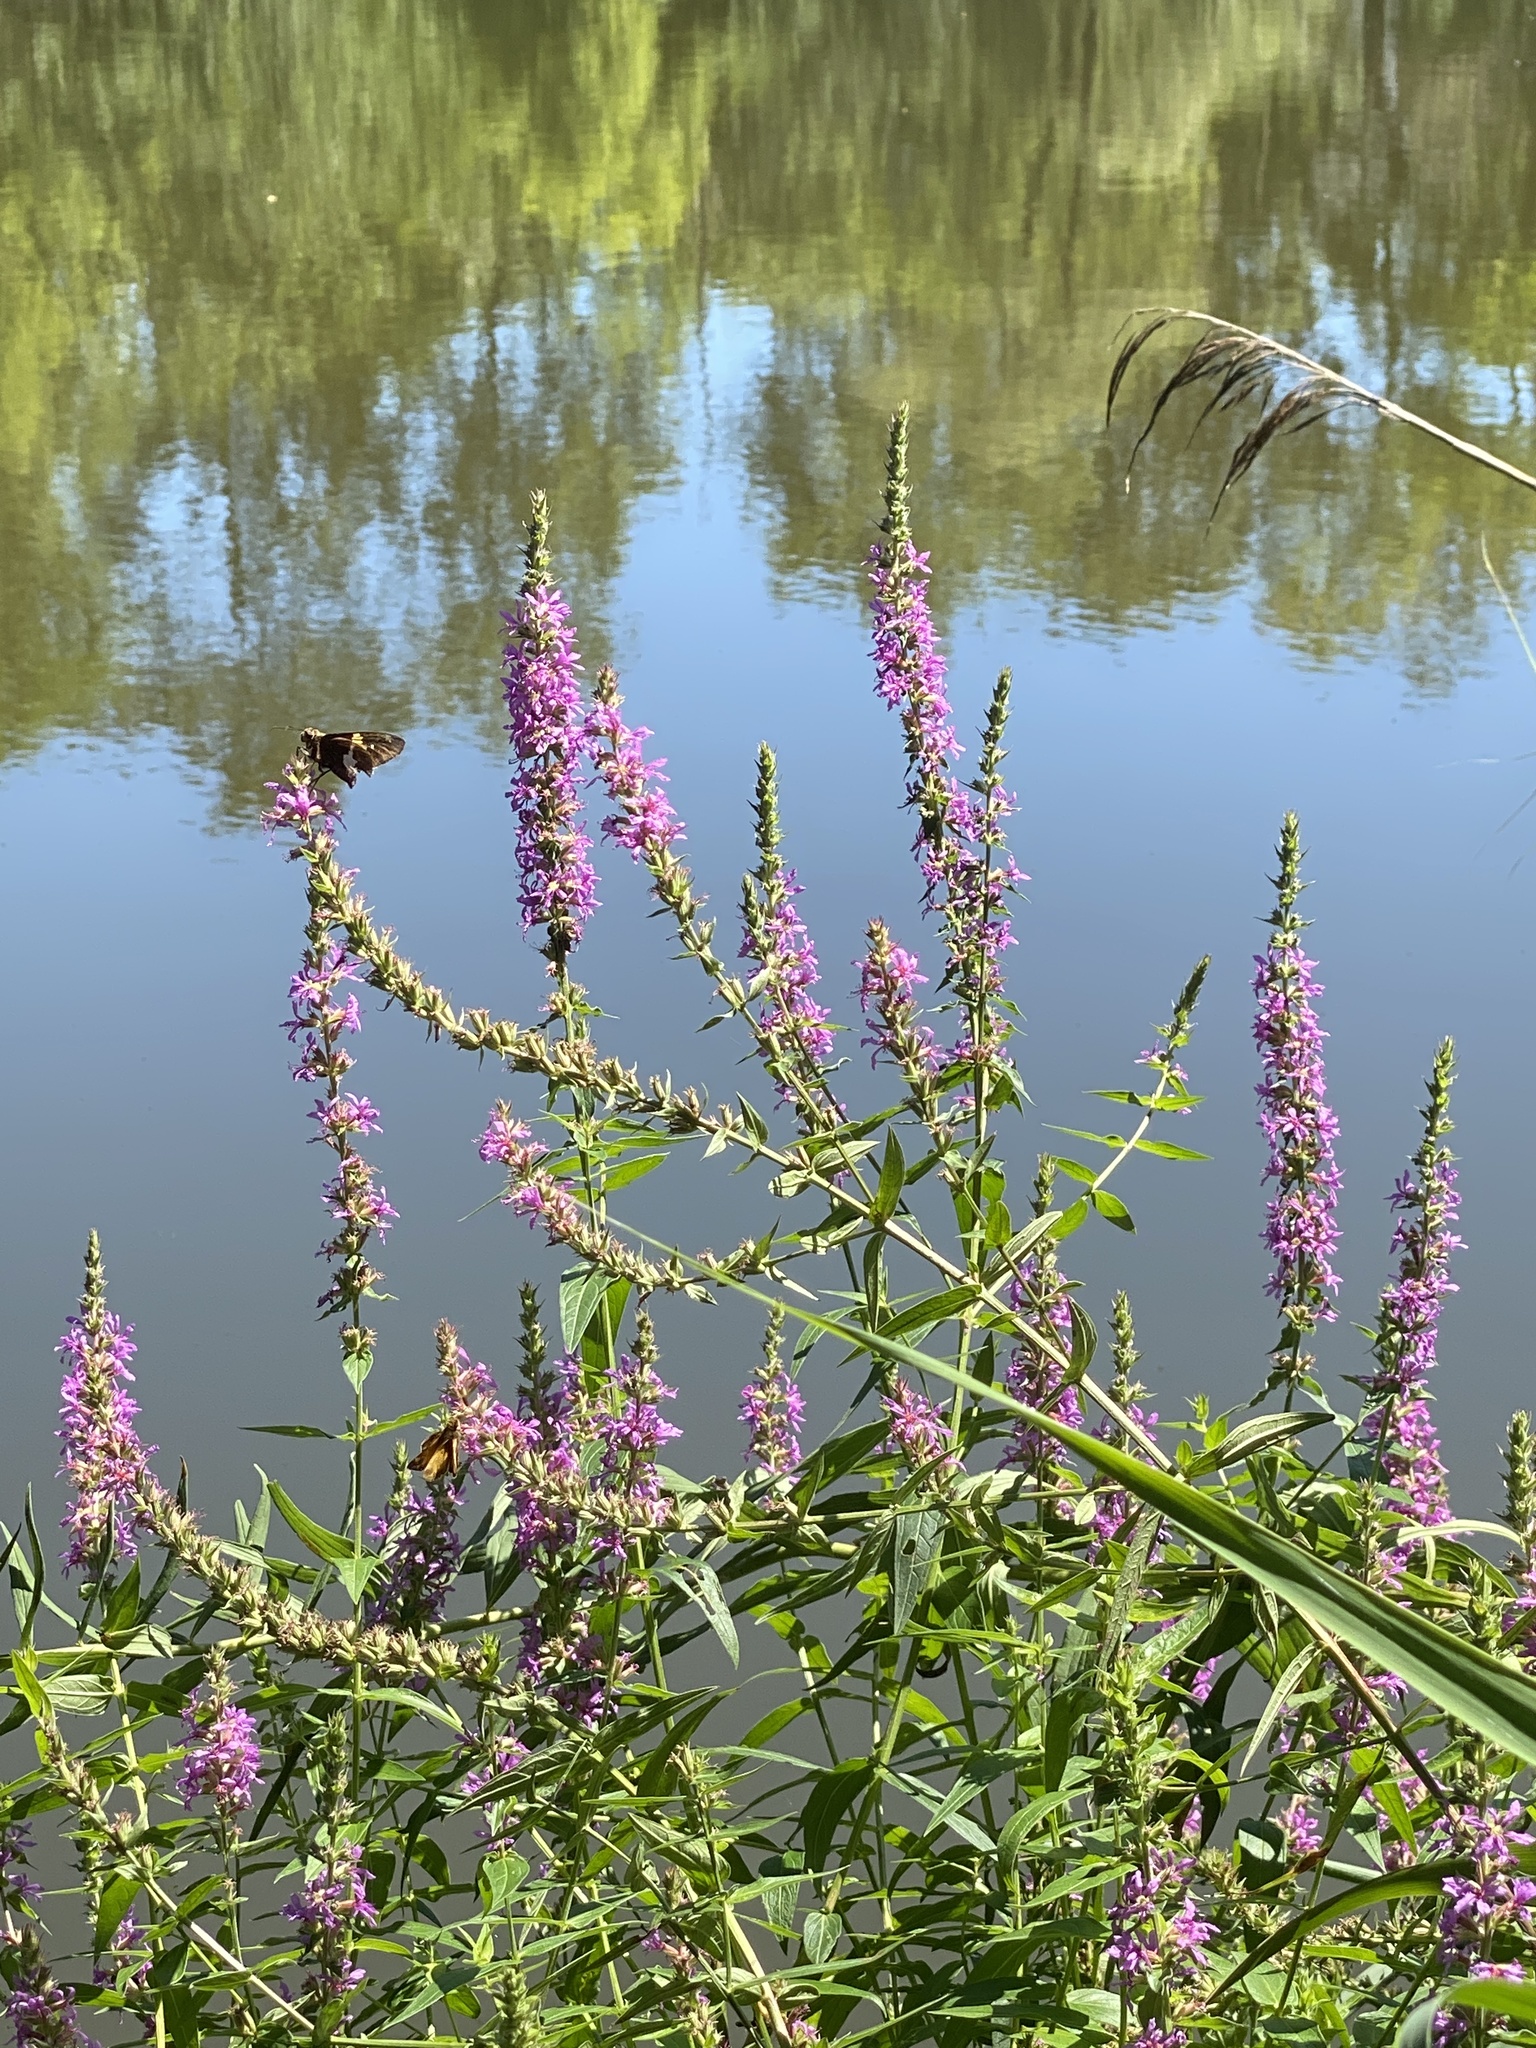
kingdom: Plantae
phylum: Tracheophyta
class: Magnoliopsida
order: Myrtales
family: Lythraceae
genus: Lythrum
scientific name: Lythrum salicaria
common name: Purple loosestrife
